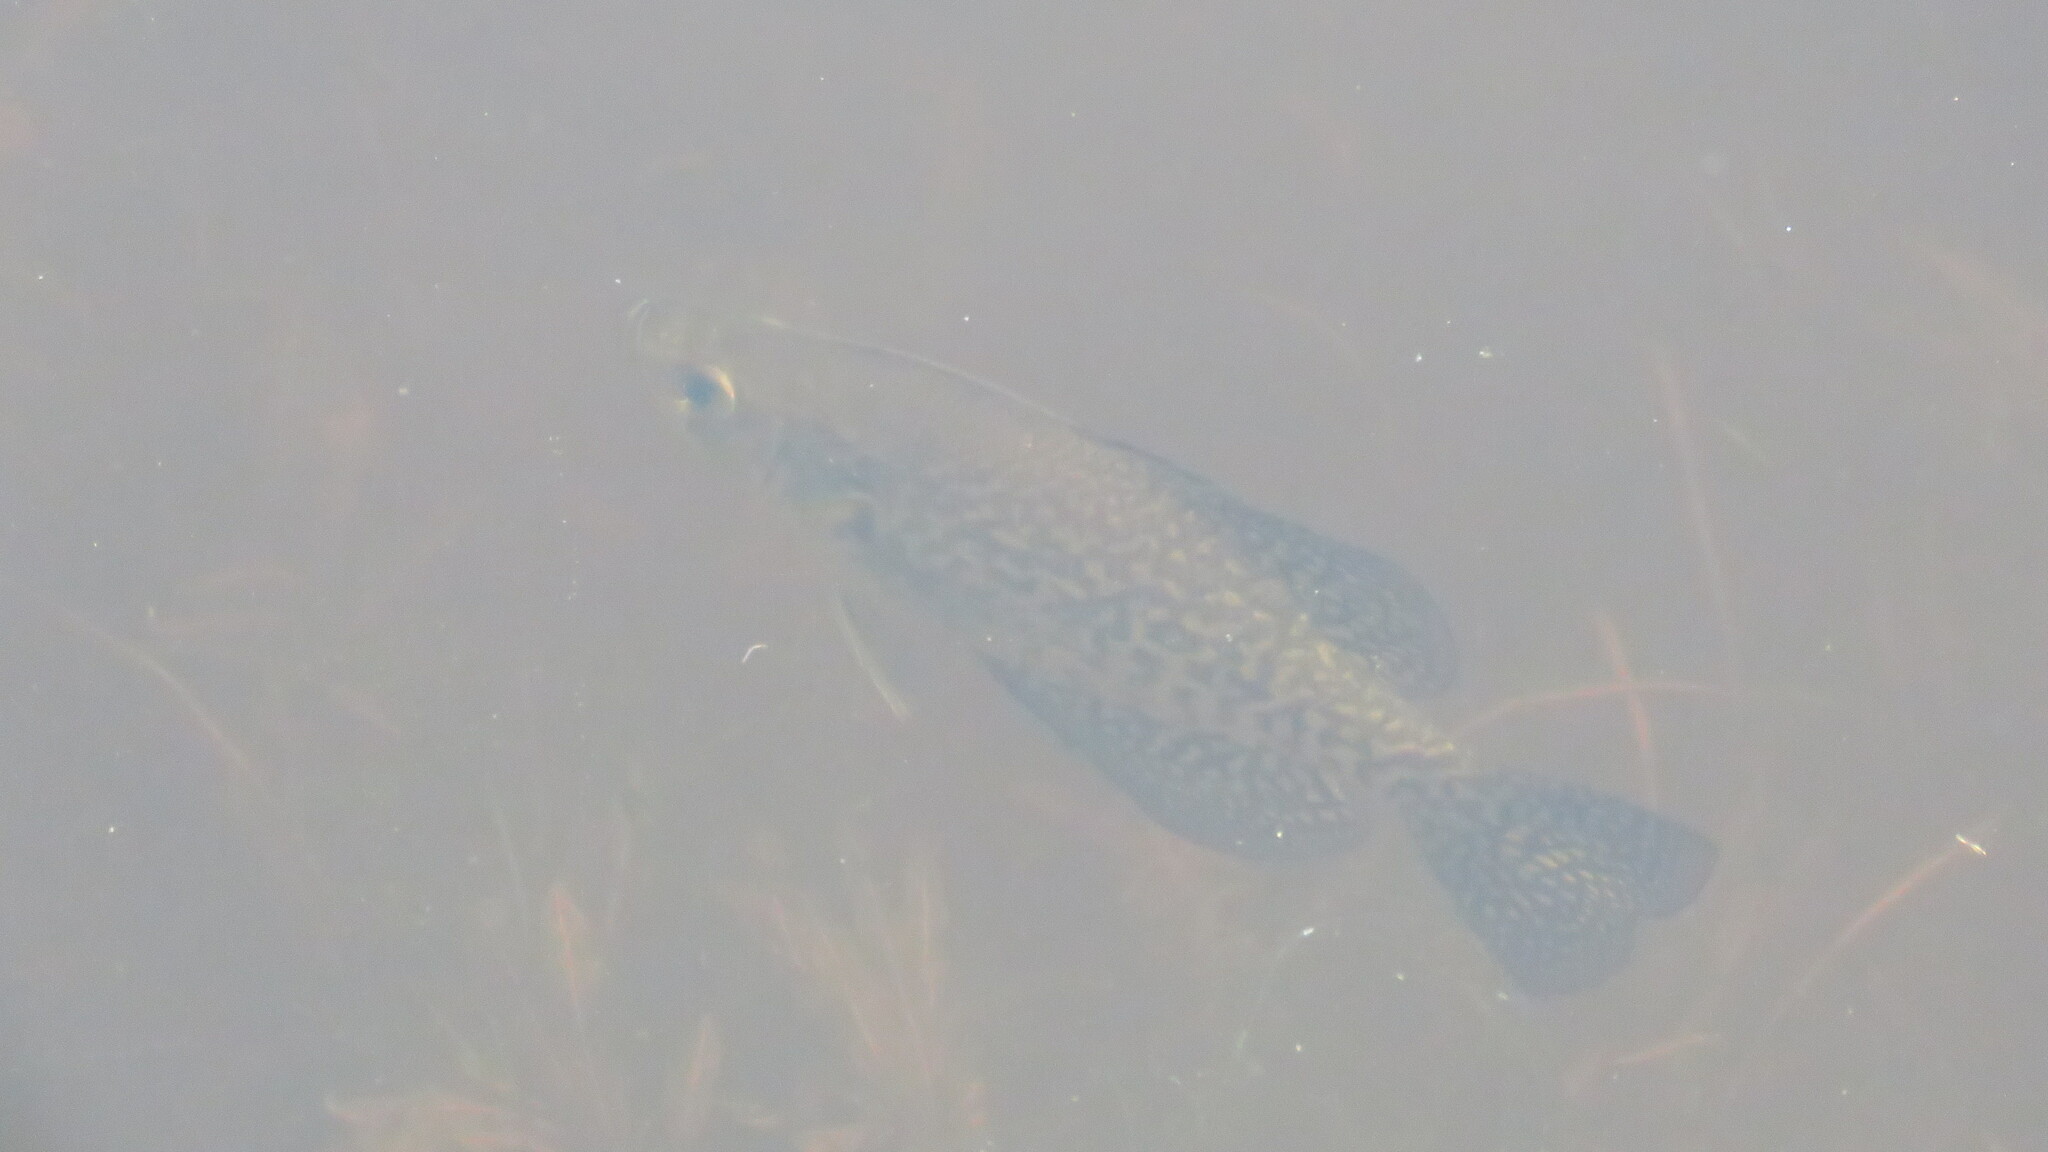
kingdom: Animalia
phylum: Chordata
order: Perciformes
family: Centrarchidae
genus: Pomoxis
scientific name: Pomoxis nigromaculatus
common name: Black crappie
